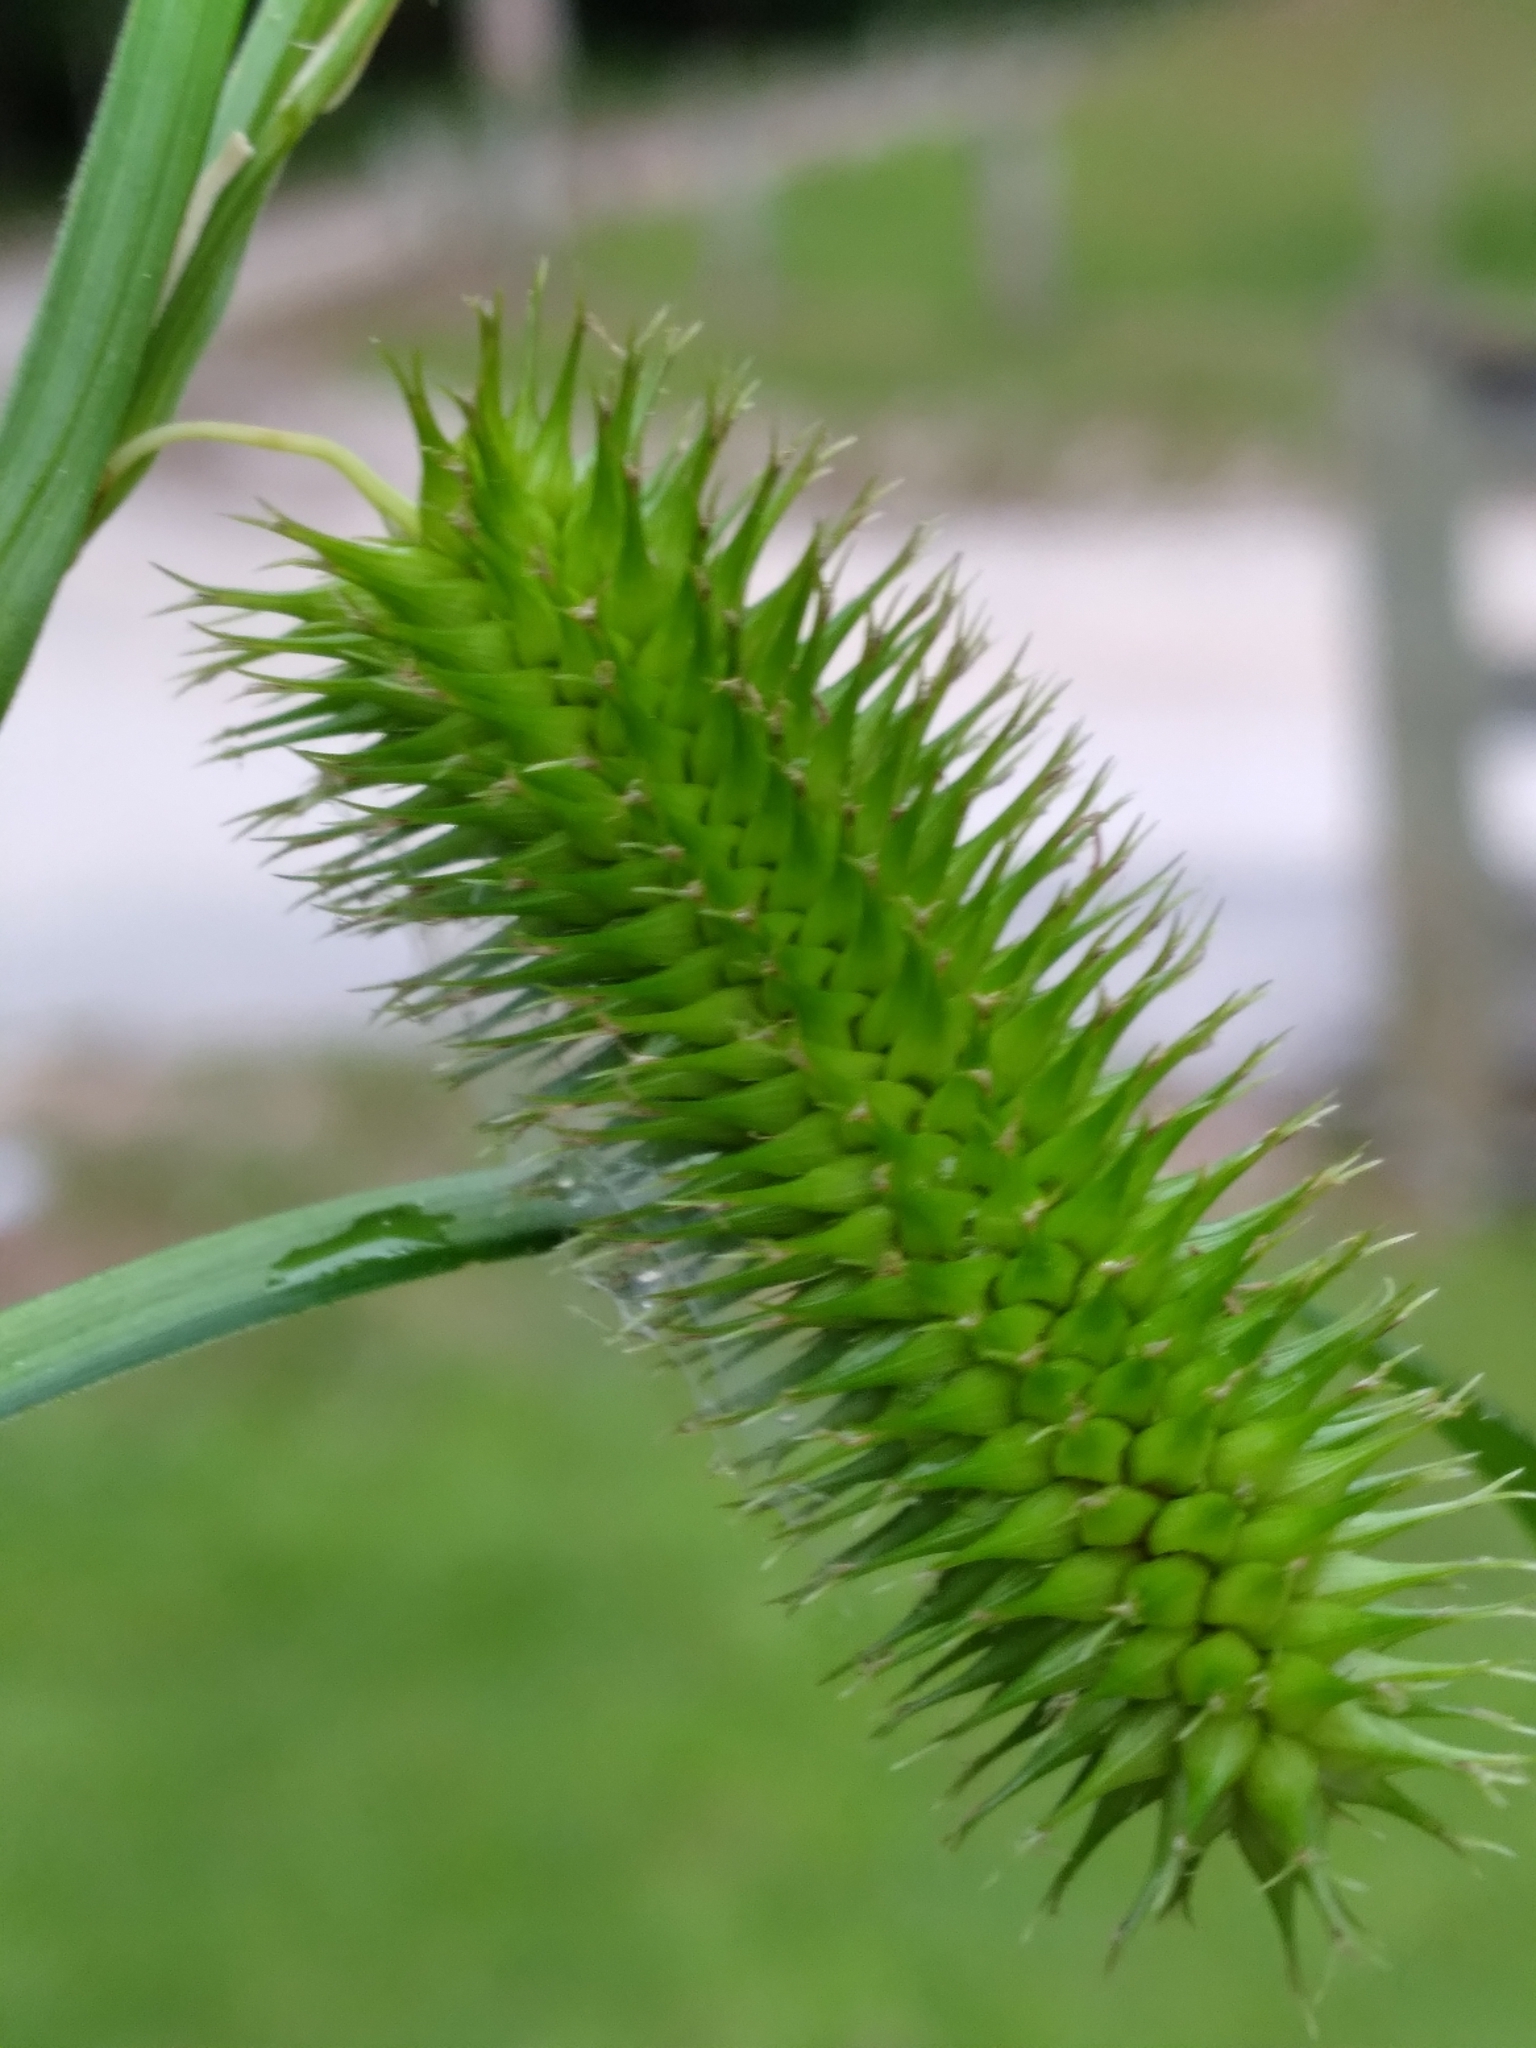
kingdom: Plantae
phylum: Tracheophyta
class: Liliopsida
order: Poales
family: Cyperaceae
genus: Carex
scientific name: Carex comosa
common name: Bristly sedge
